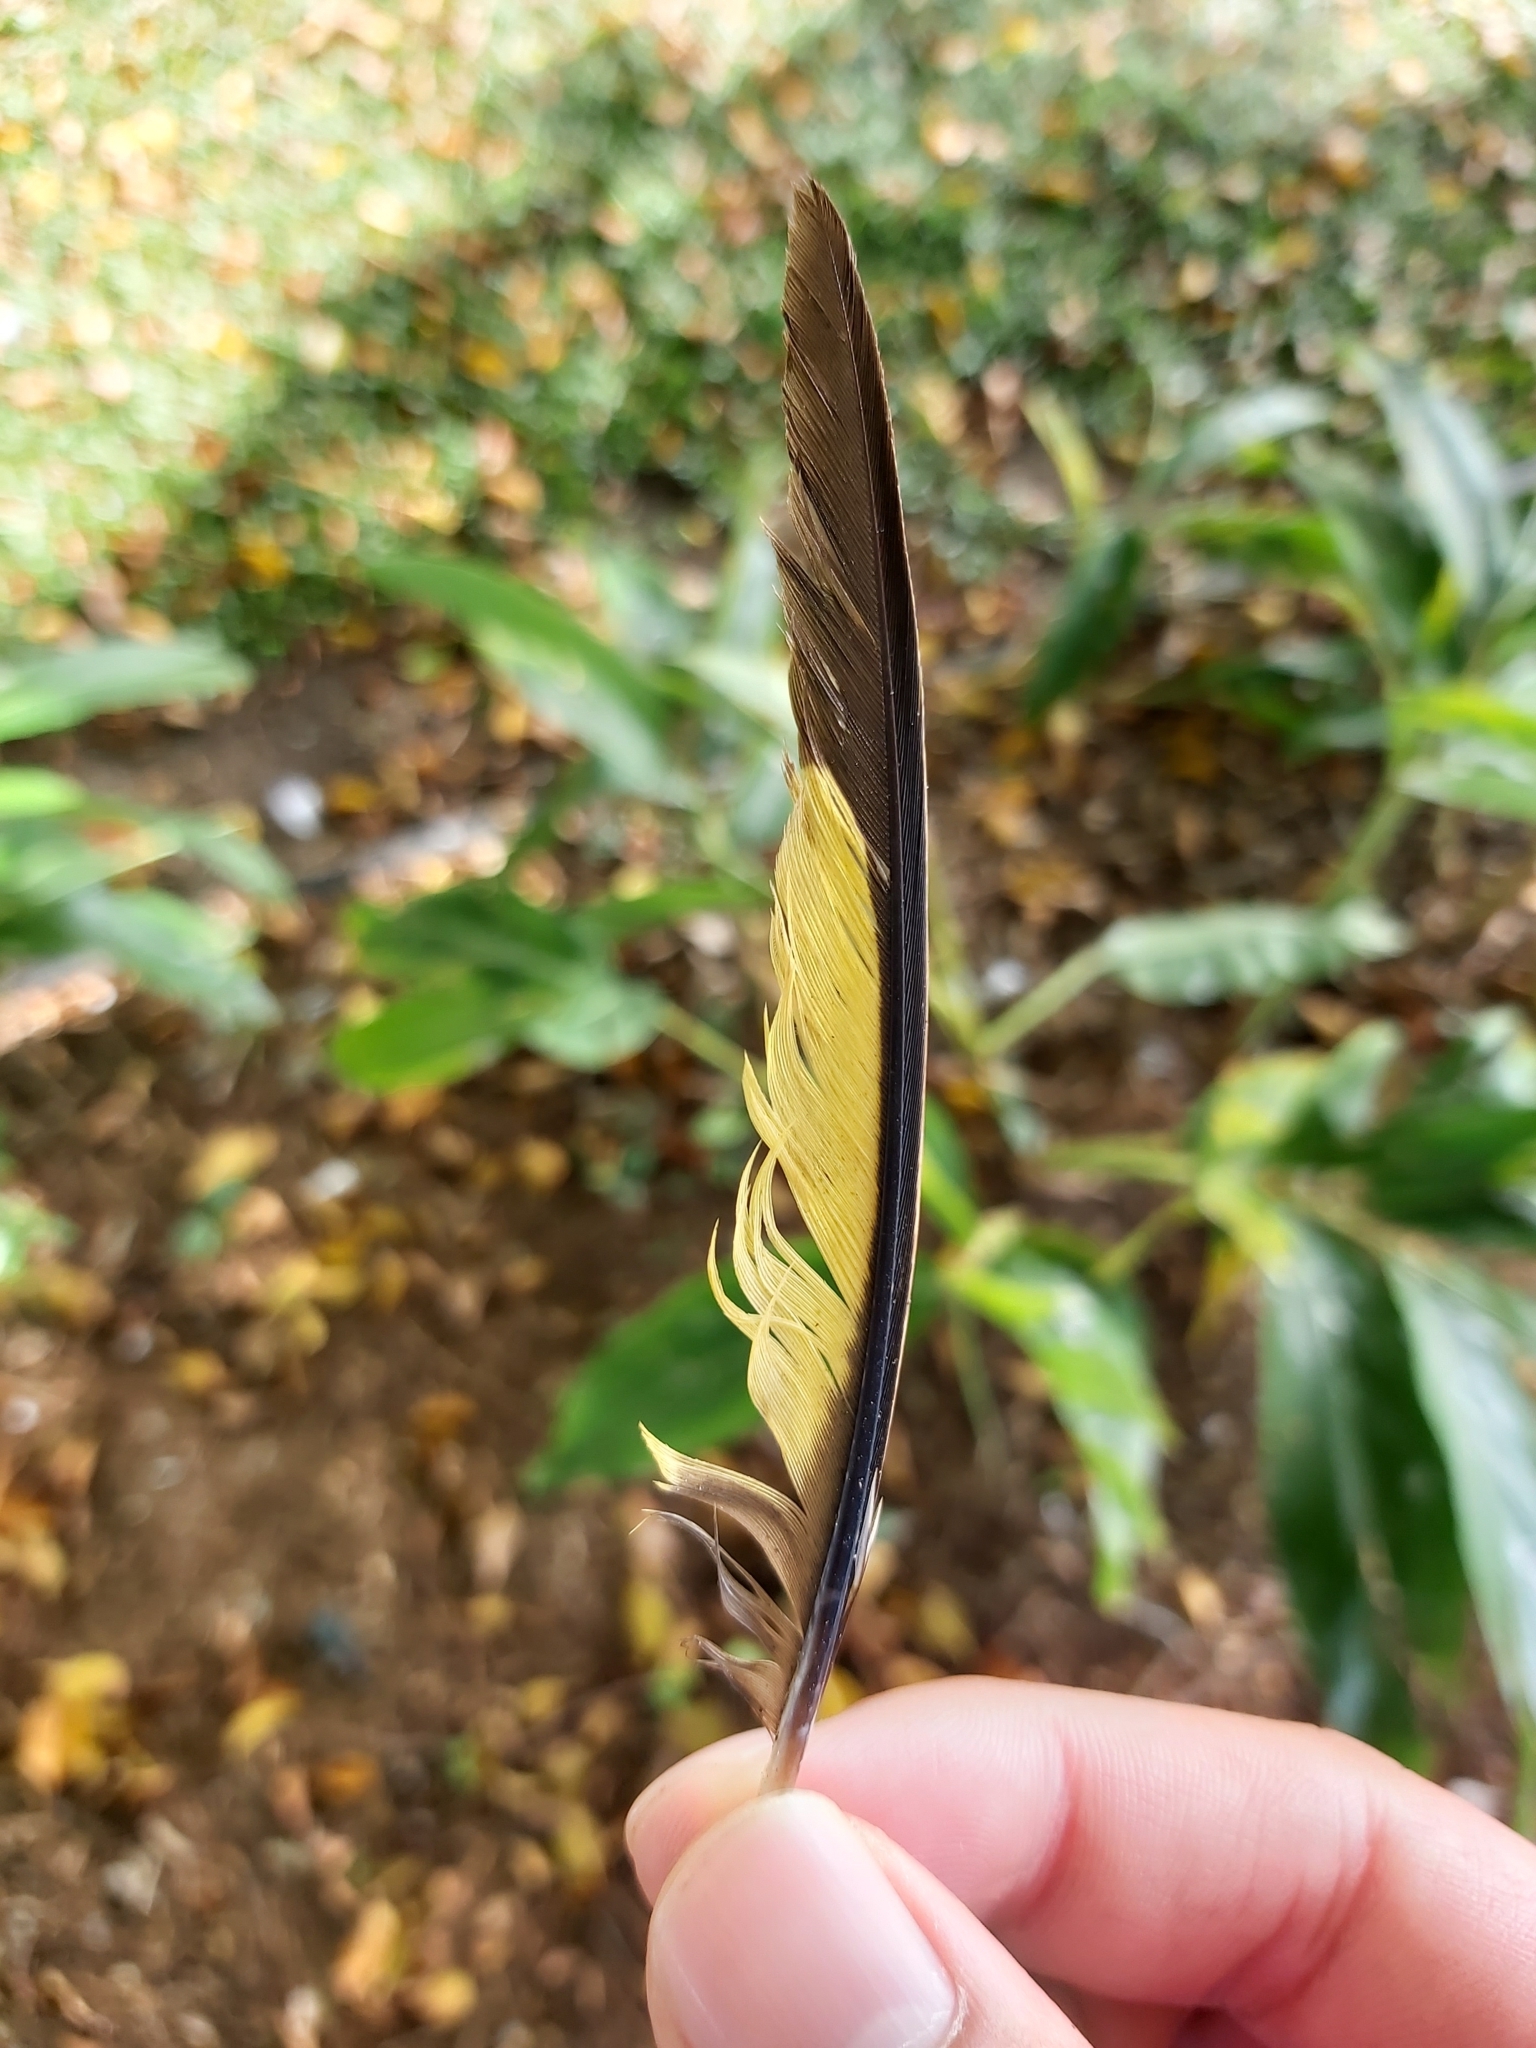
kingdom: Animalia
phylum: Chordata
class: Aves
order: Psittaciformes
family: Psittacidae
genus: Trichoglossus
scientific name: Trichoglossus haematodus
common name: Coconut lorikeet
